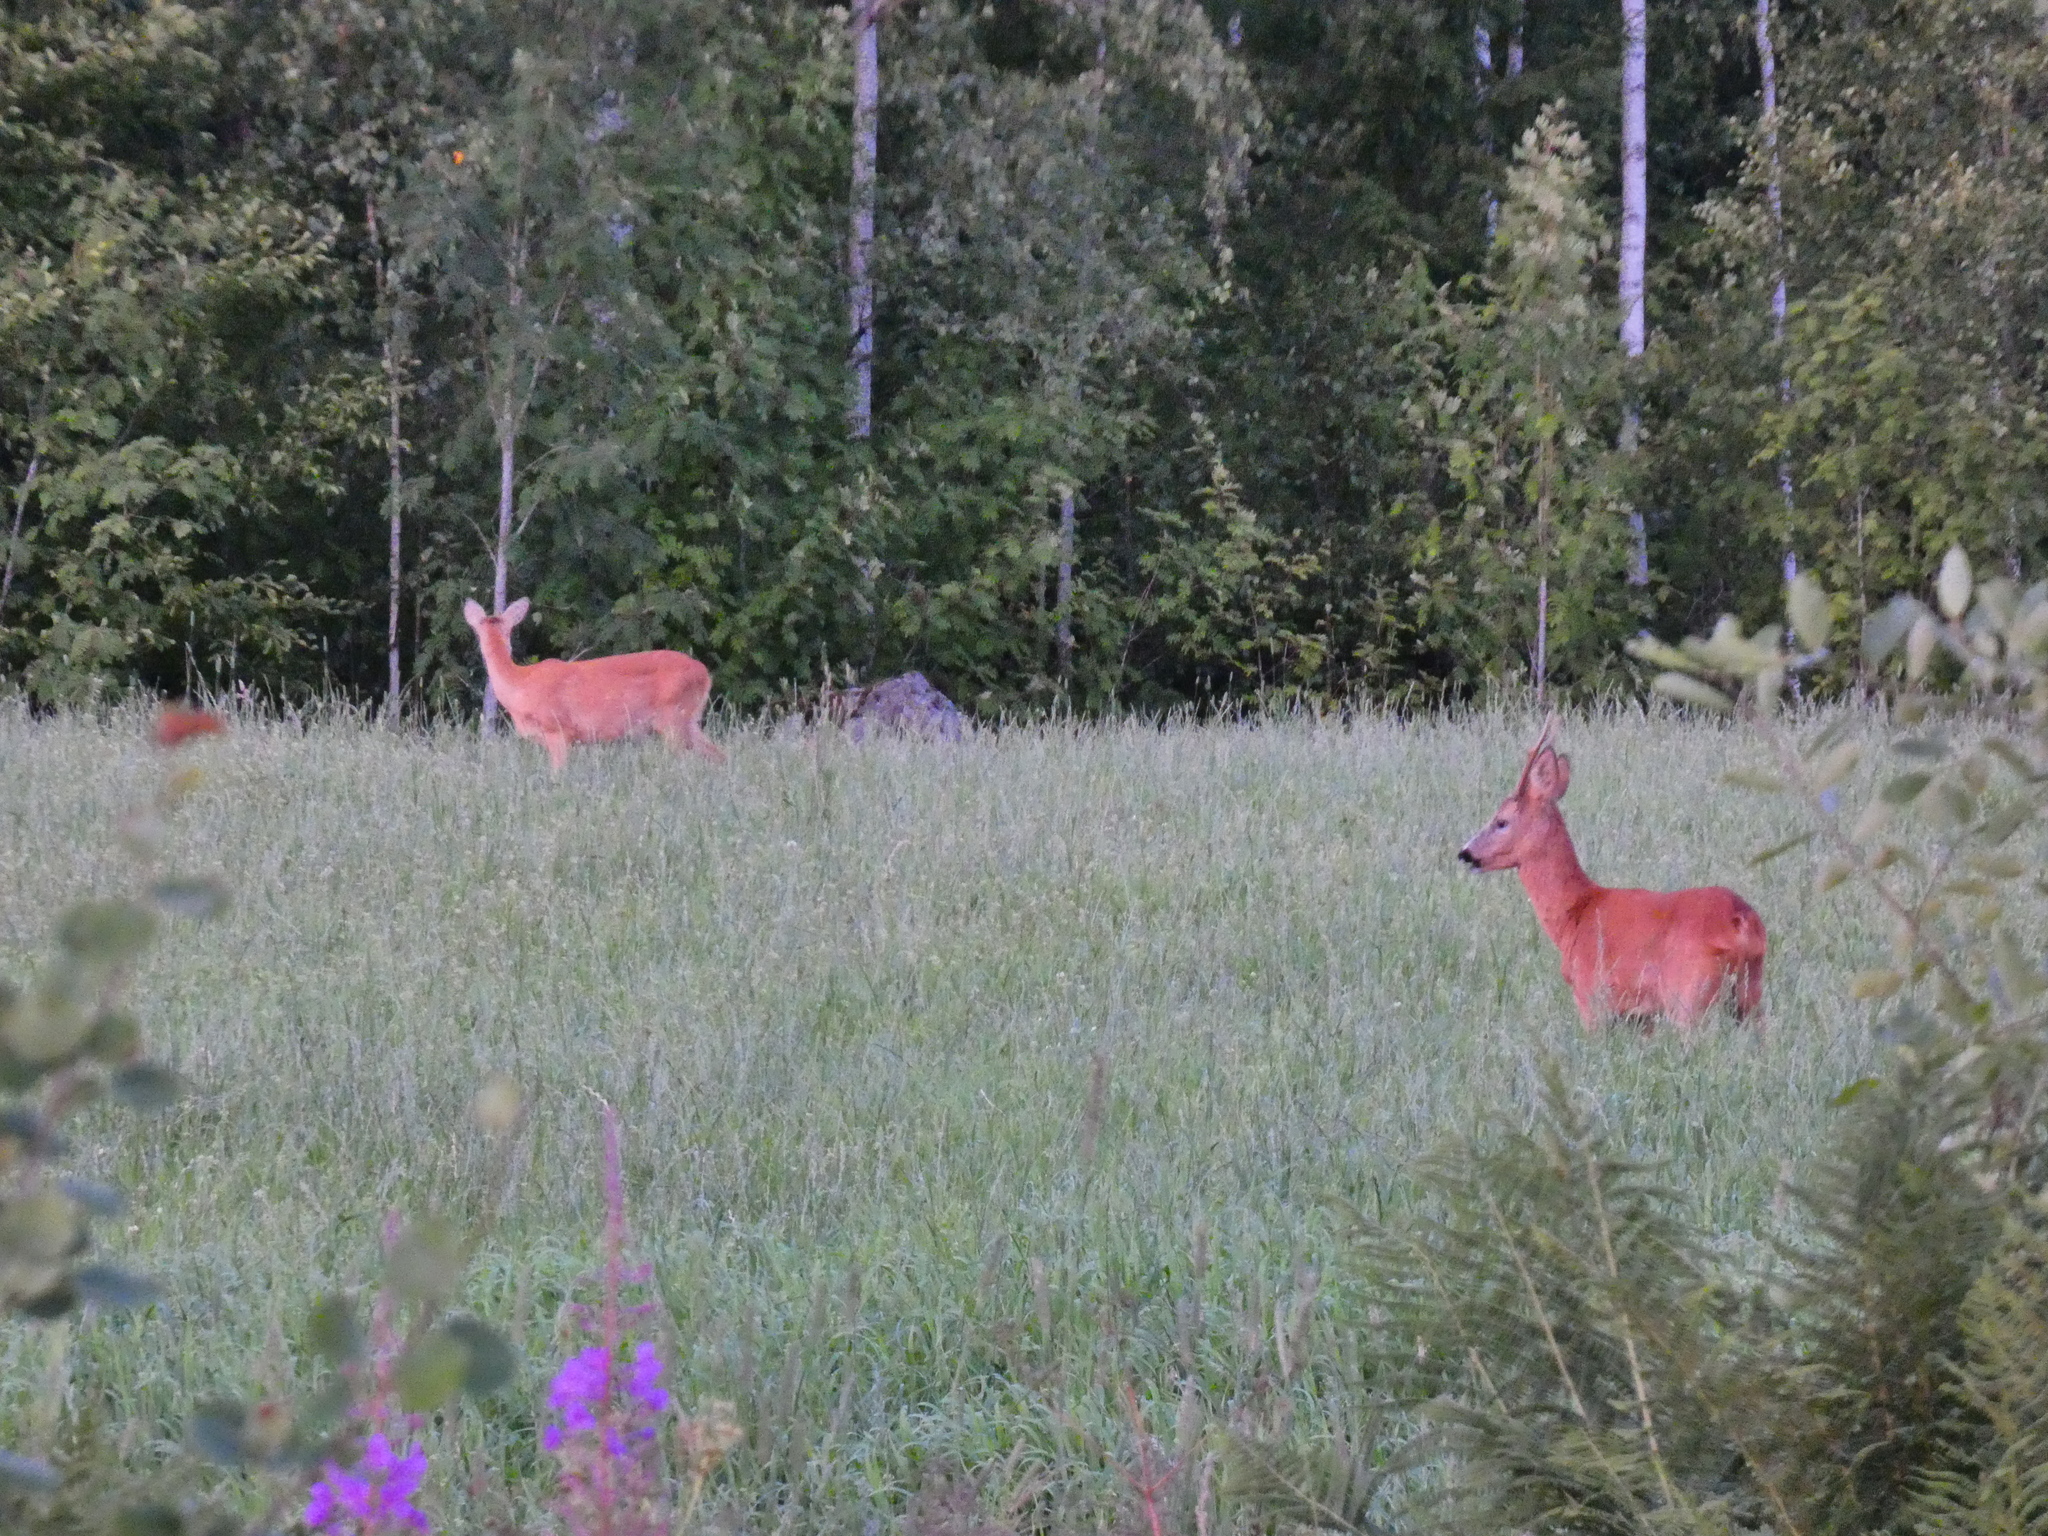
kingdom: Animalia
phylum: Chordata
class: Mammalia
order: Artiodactyla
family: Cervidae
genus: Capreolus
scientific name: Capreolus capreolus
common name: Western roe deer
